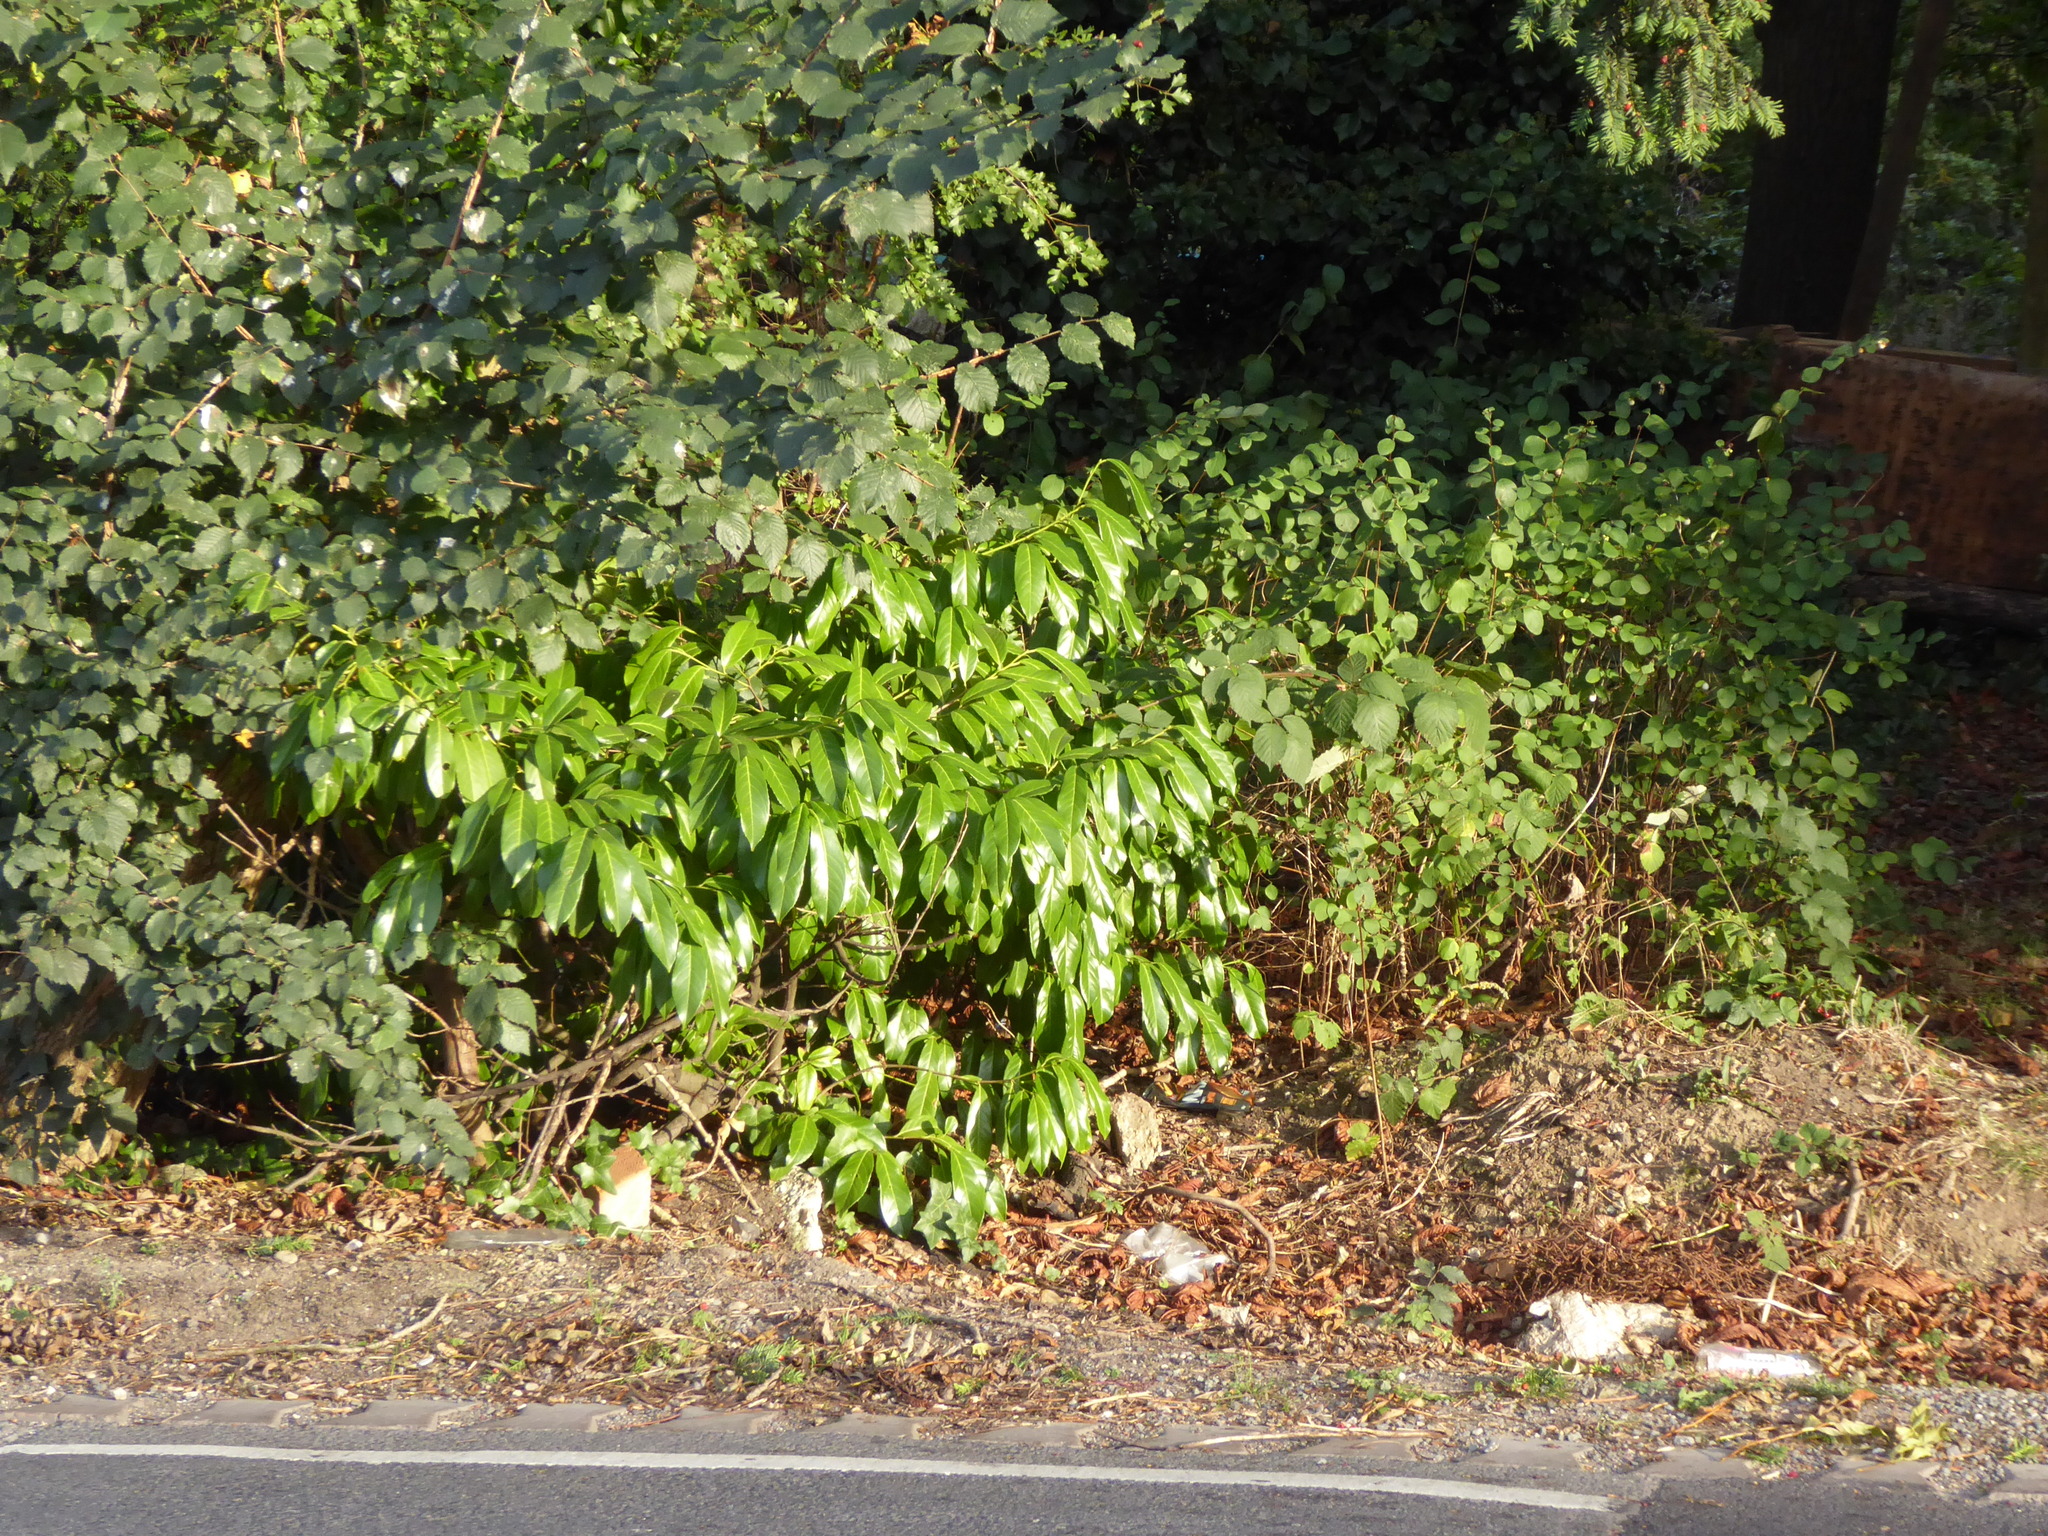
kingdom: Plantae
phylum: Tracheophyta
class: Magnoliopsida
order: Rosales
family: Rosaceae
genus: Prunus
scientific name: Prunus laurocerasus
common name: Cherry laurel
